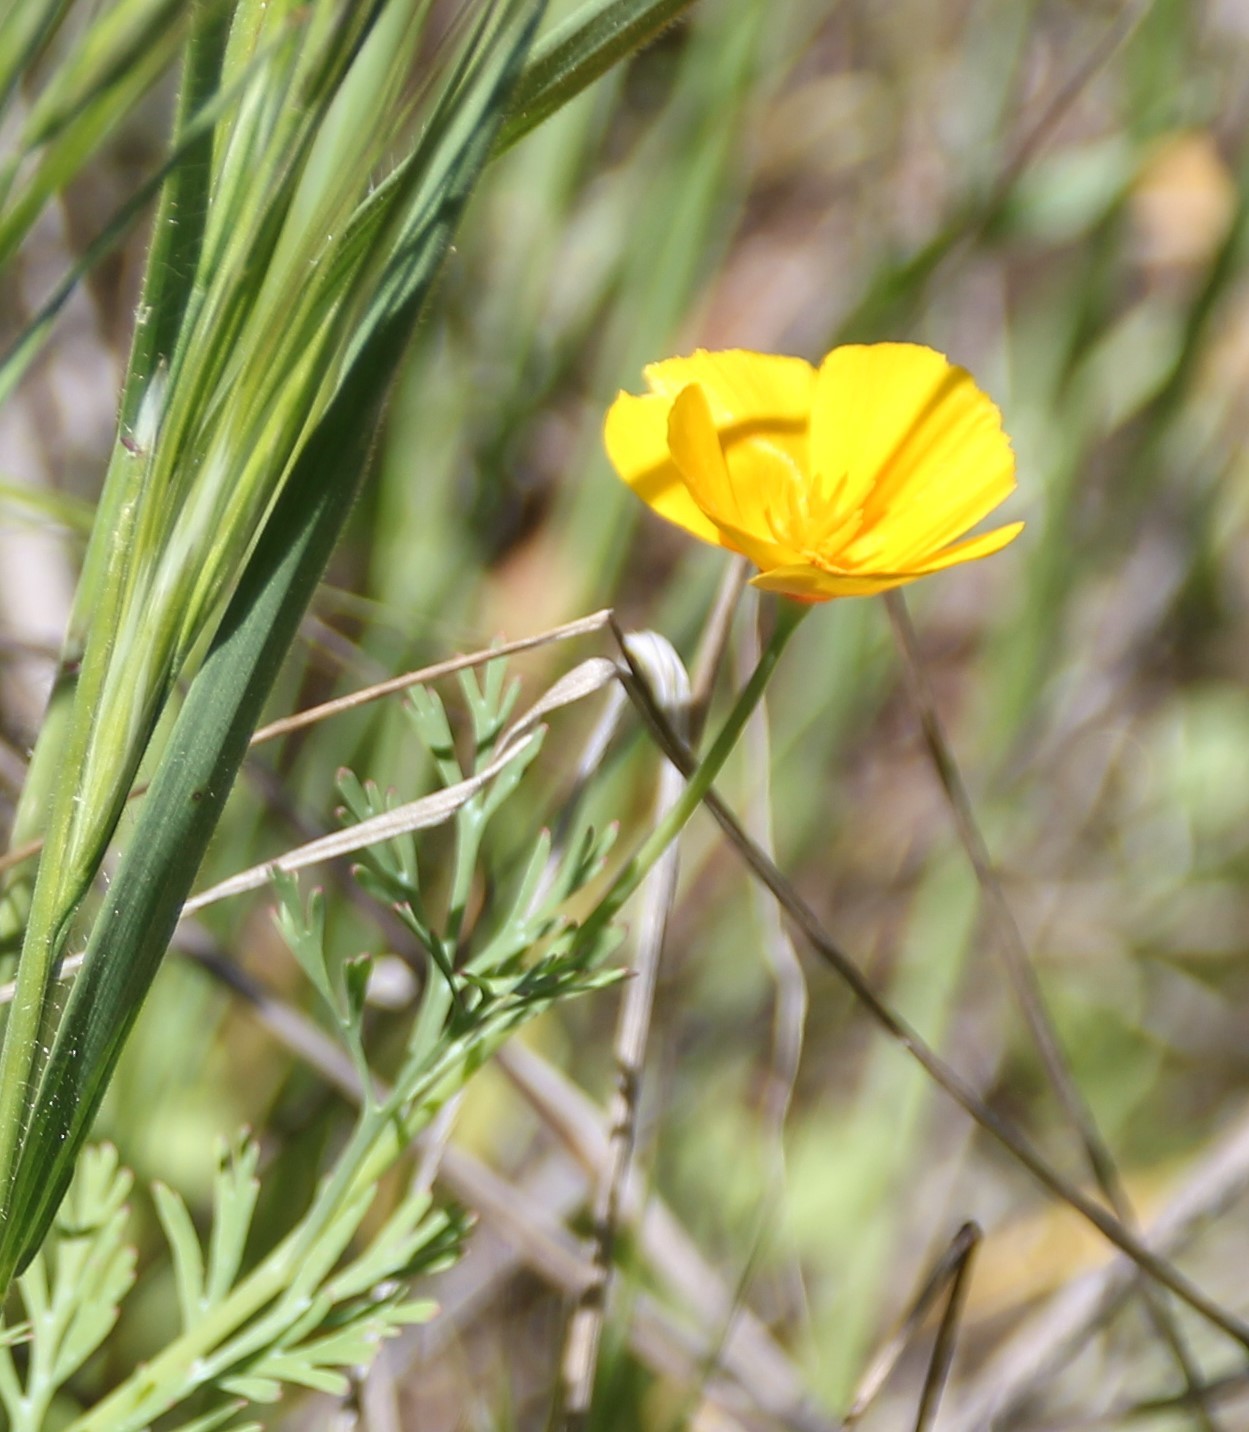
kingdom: Plantae
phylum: Tracheophyta
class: Magnoliopsida
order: Ranunculales
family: Papaveraceae
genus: Eschscholzia
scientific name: Eschscholzia californica
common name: California poppy
